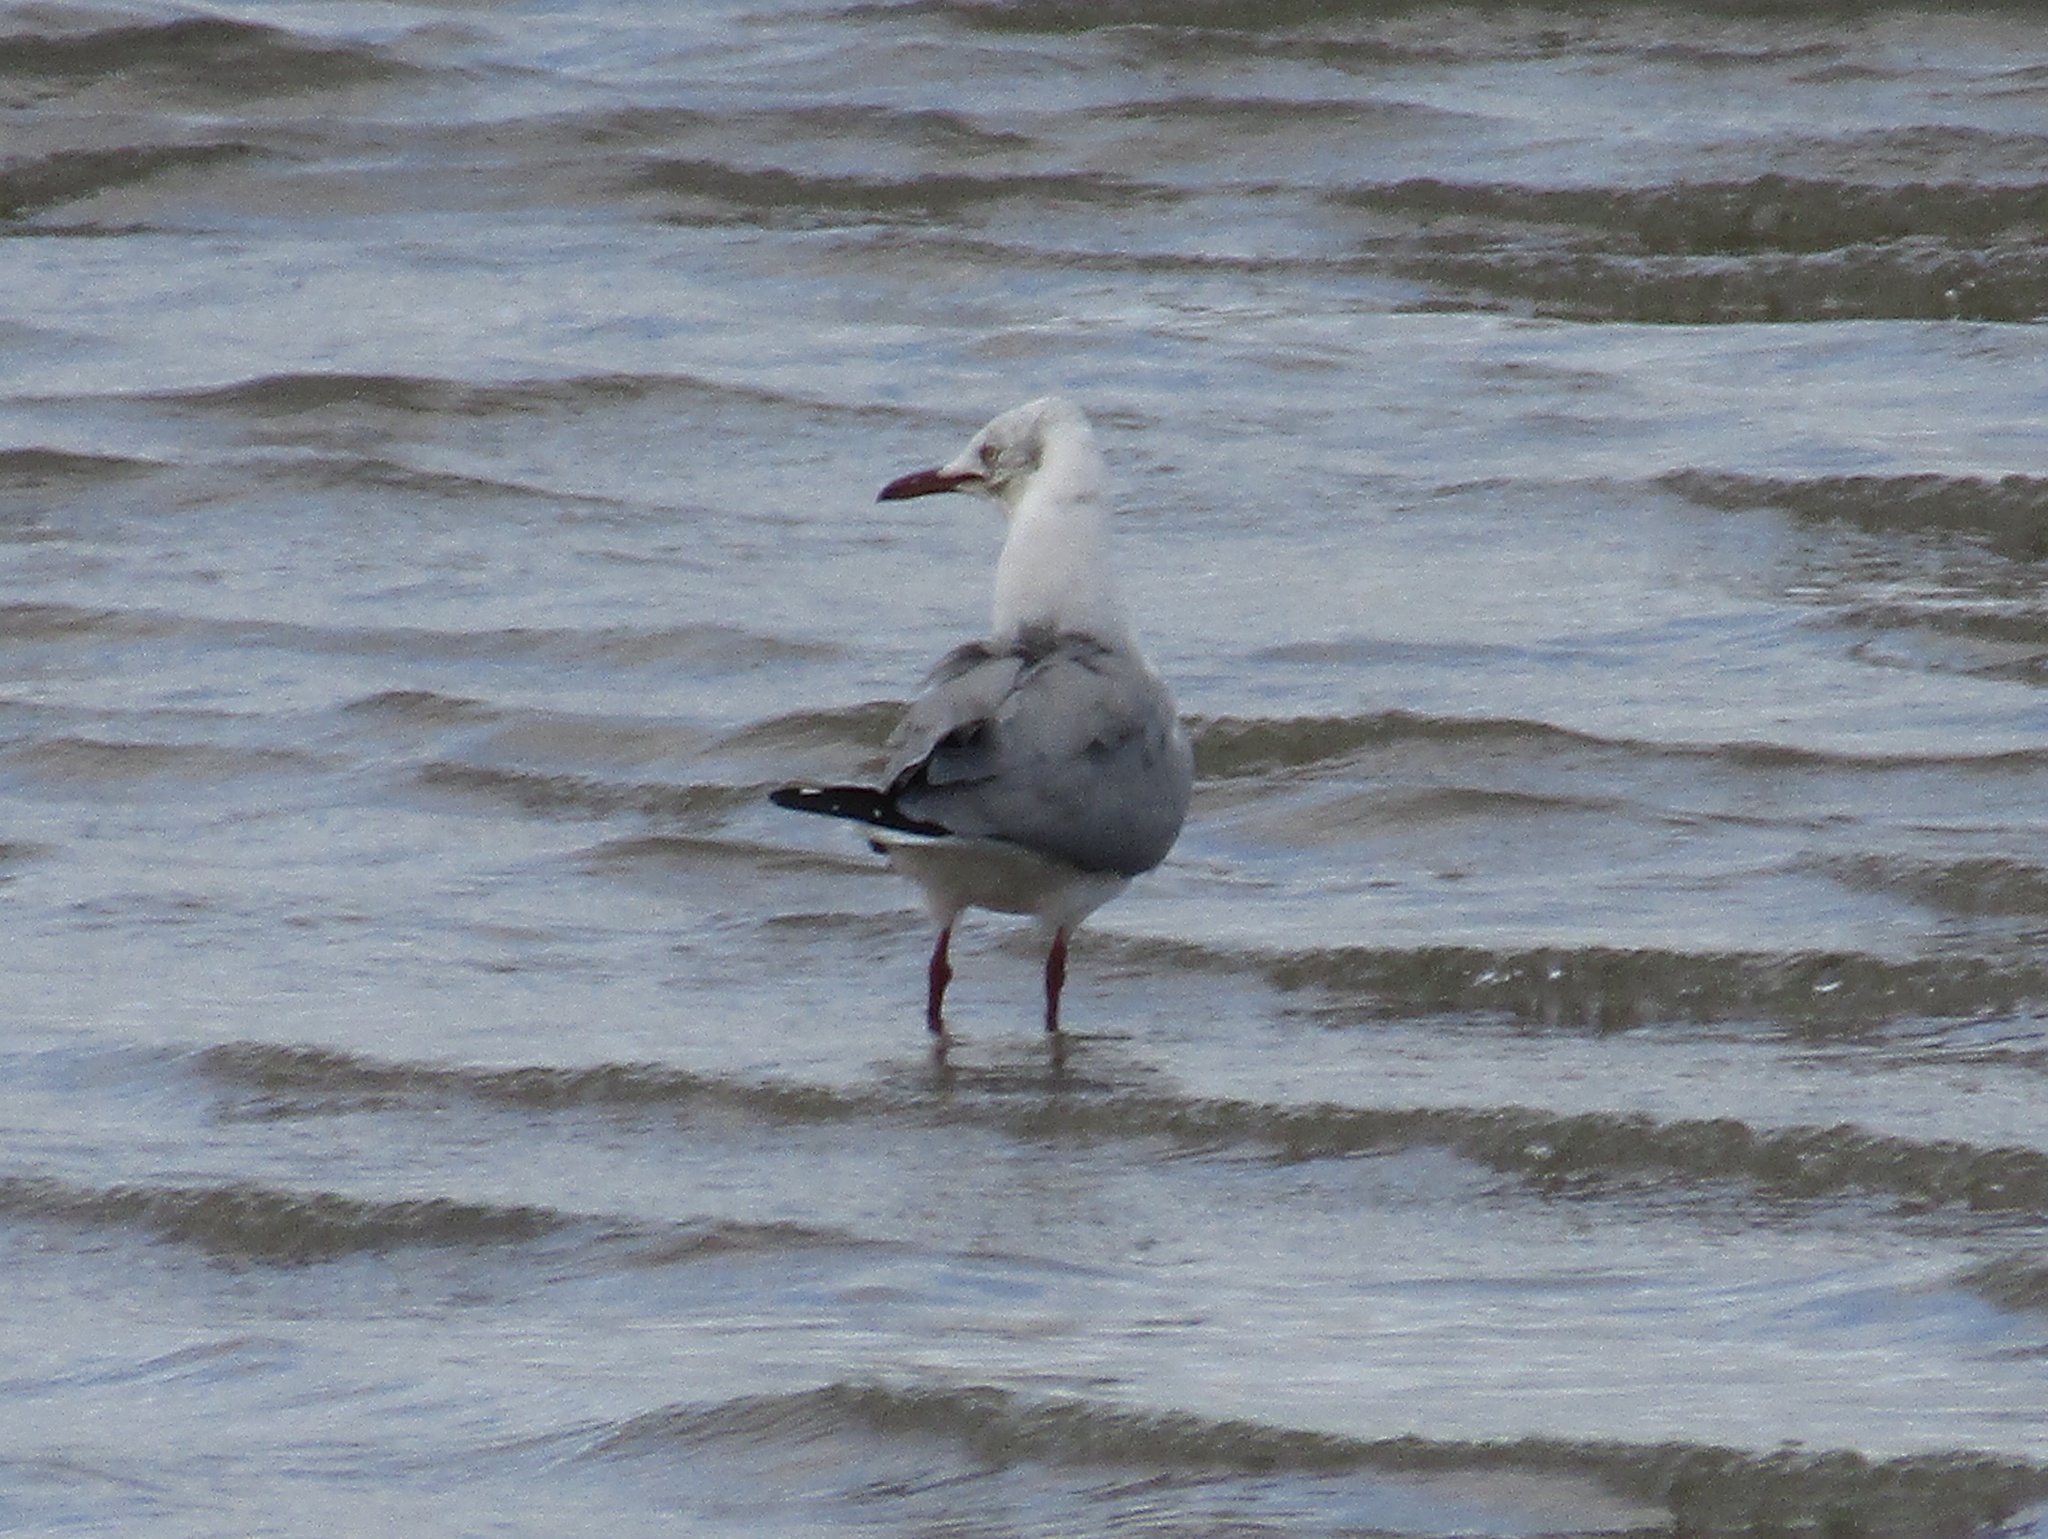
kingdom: Animalia
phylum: Chordata
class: Aves
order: Charadriiformes
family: Laridae
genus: Chroicocephalus
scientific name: Chroicocephalus cirrocephalus
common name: Grey-headed gull
